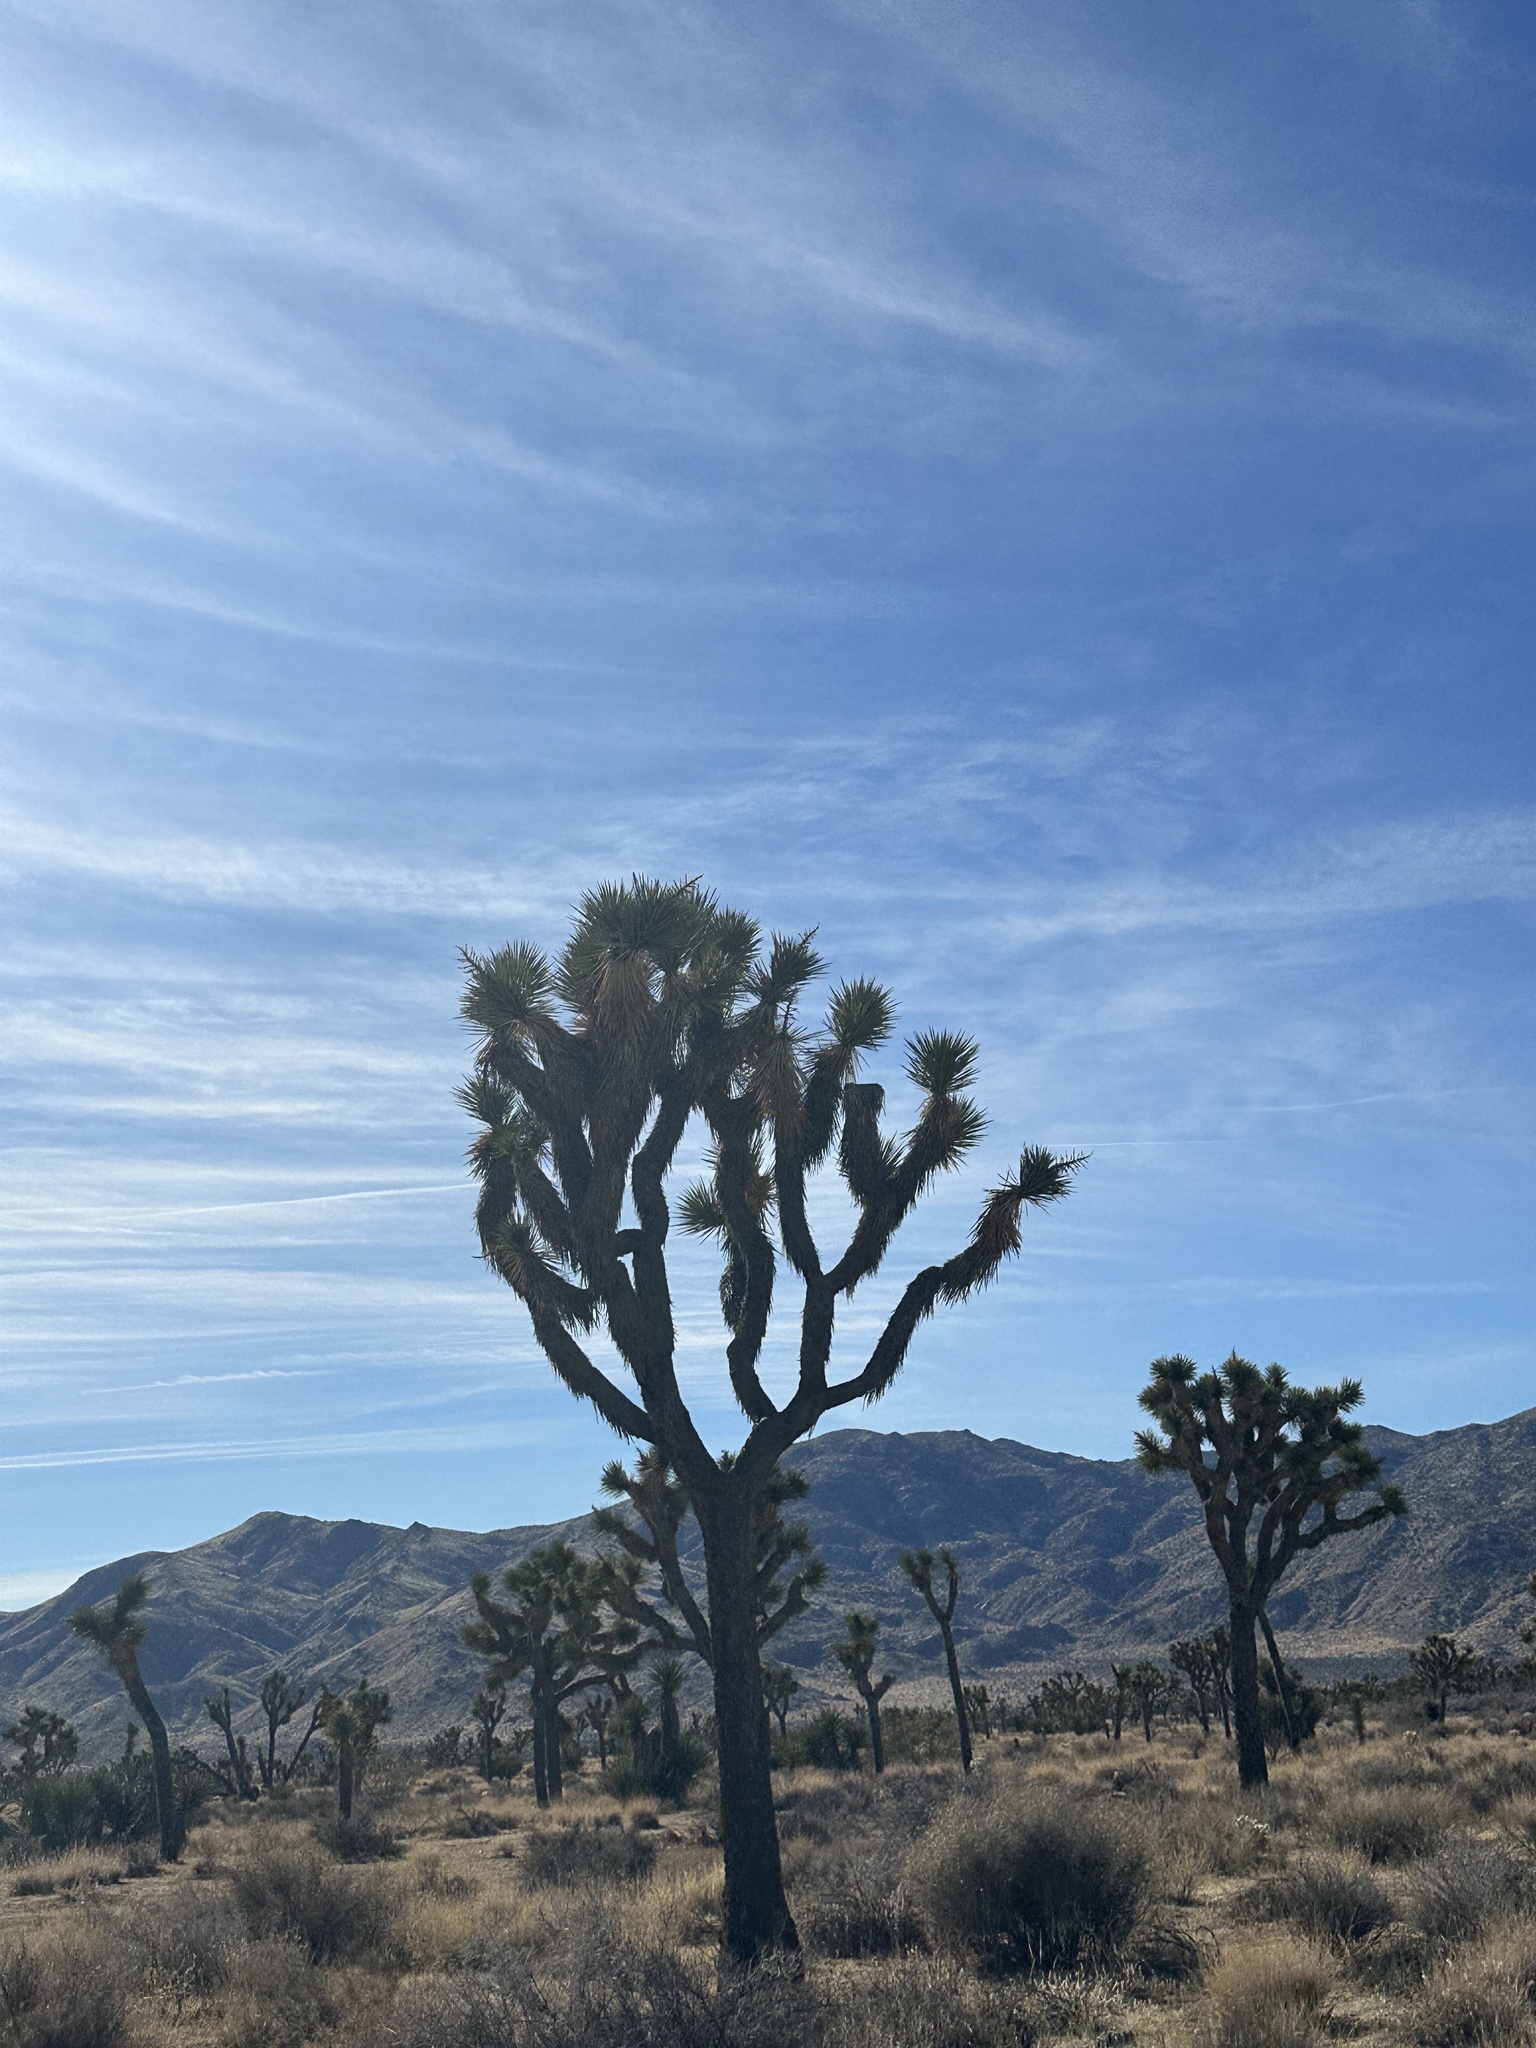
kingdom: Plantae
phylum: Tracheophyta
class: Liliopsida
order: Asparagales
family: Asparagaceae
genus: Yucca
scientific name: Yucca brevifolia
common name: Joshua tree
